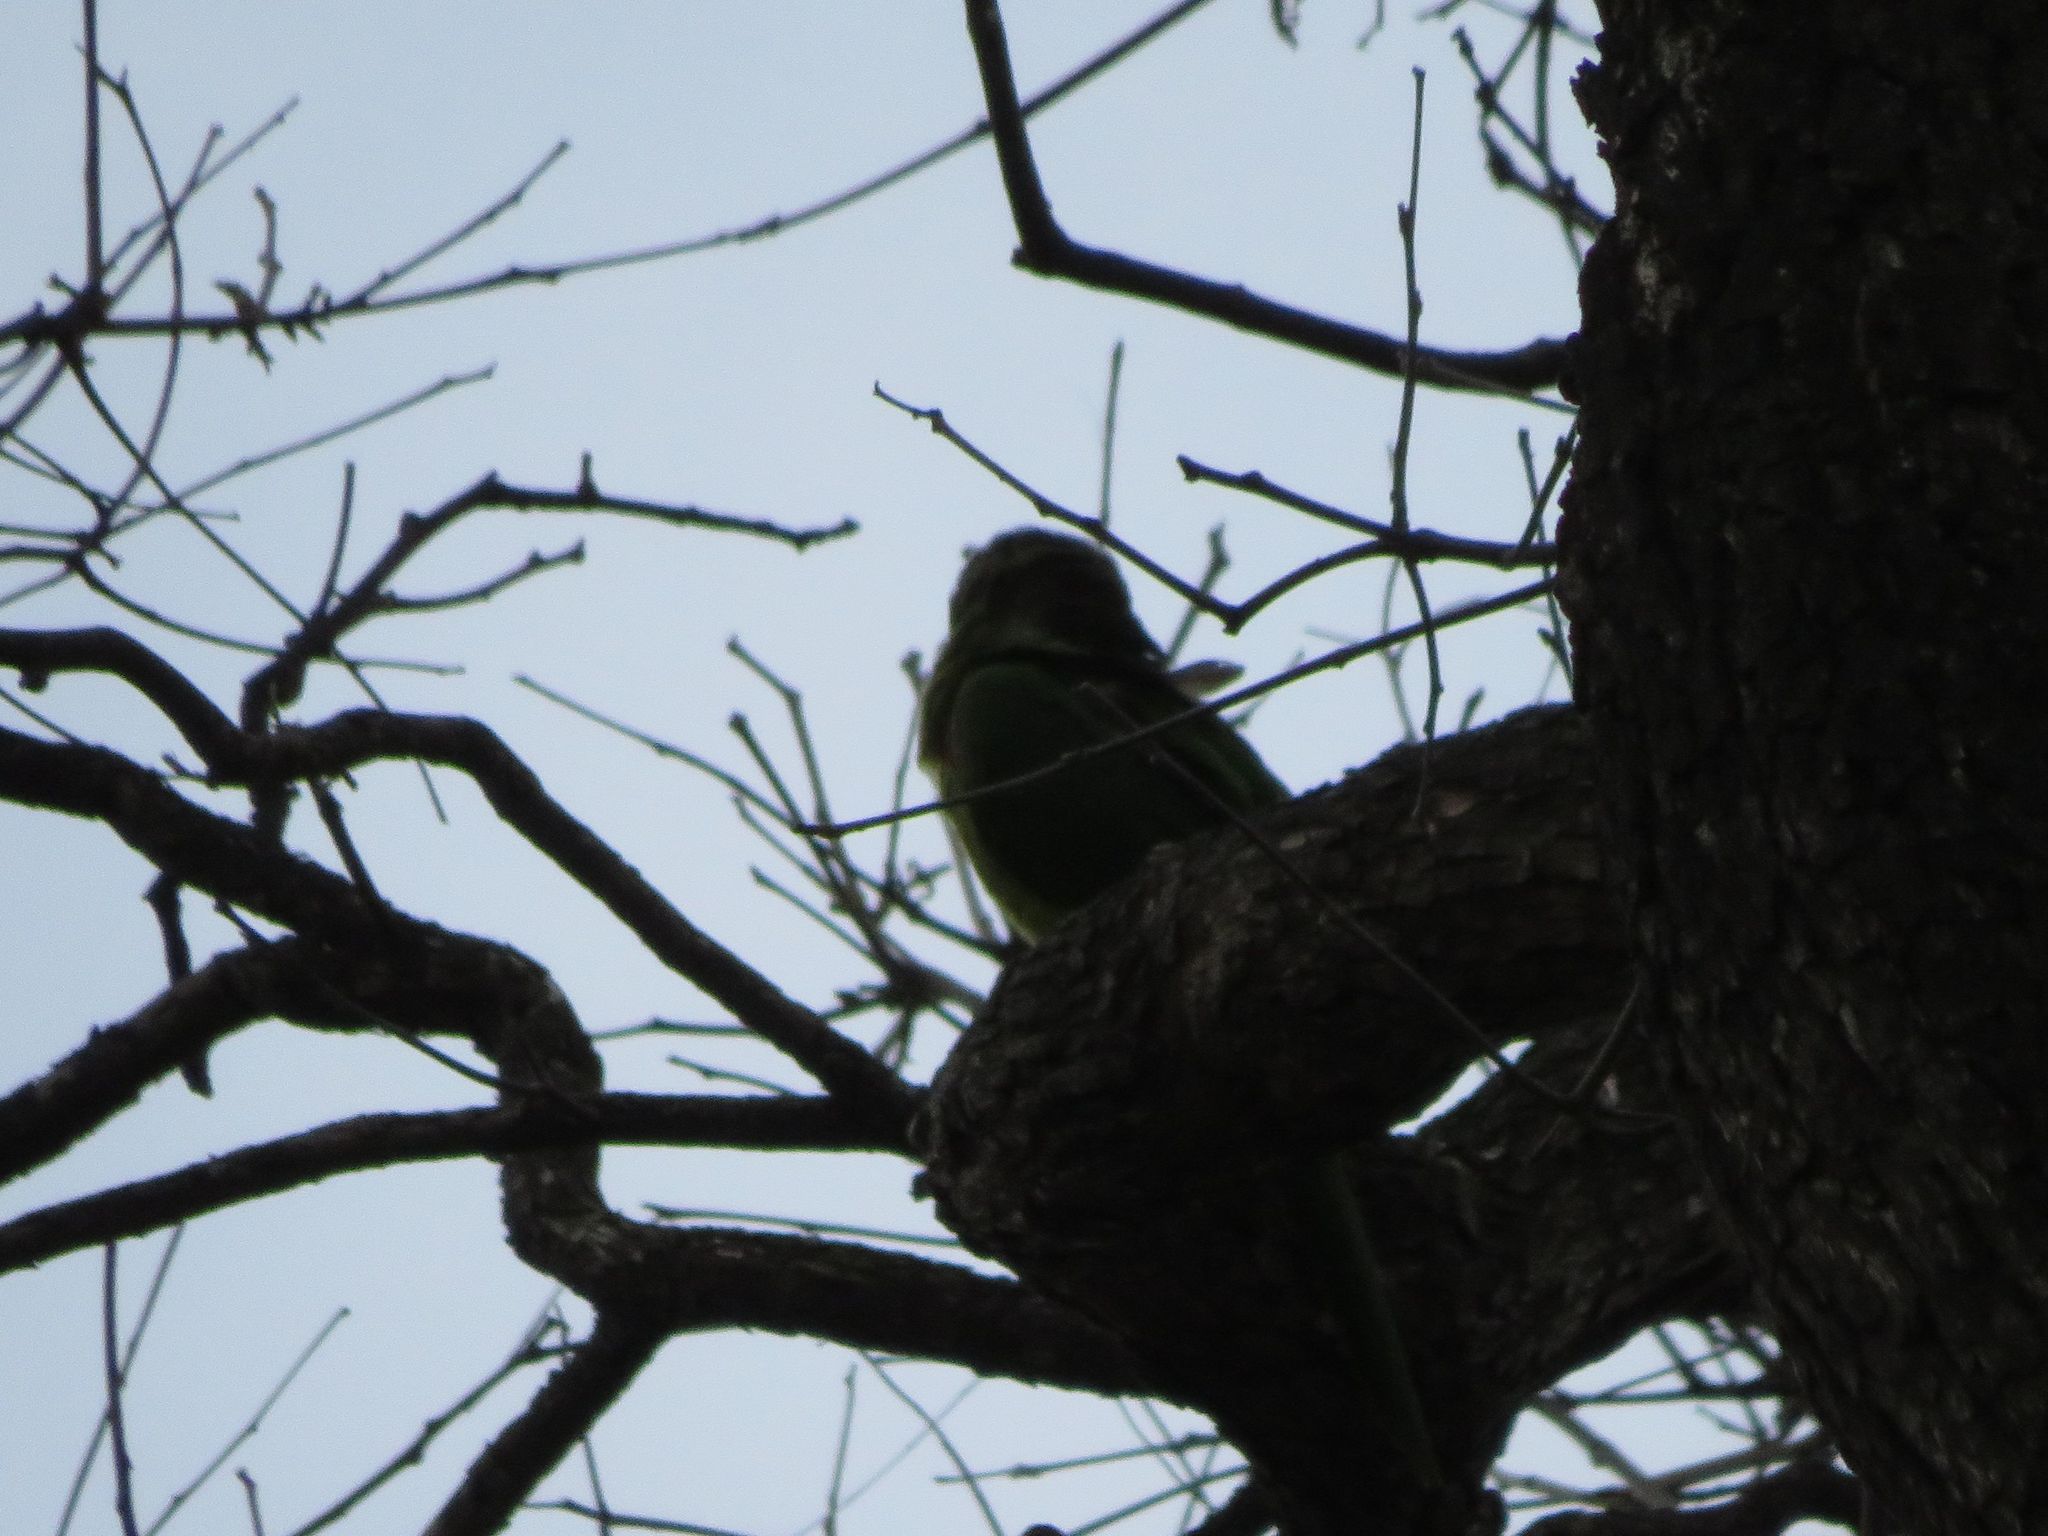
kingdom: Animalia
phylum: Chordata
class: Aves
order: Psittaciformes
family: Psittacidae
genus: Aratinga
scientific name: Aratinga leucophthalma
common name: White-eyed parakeet
